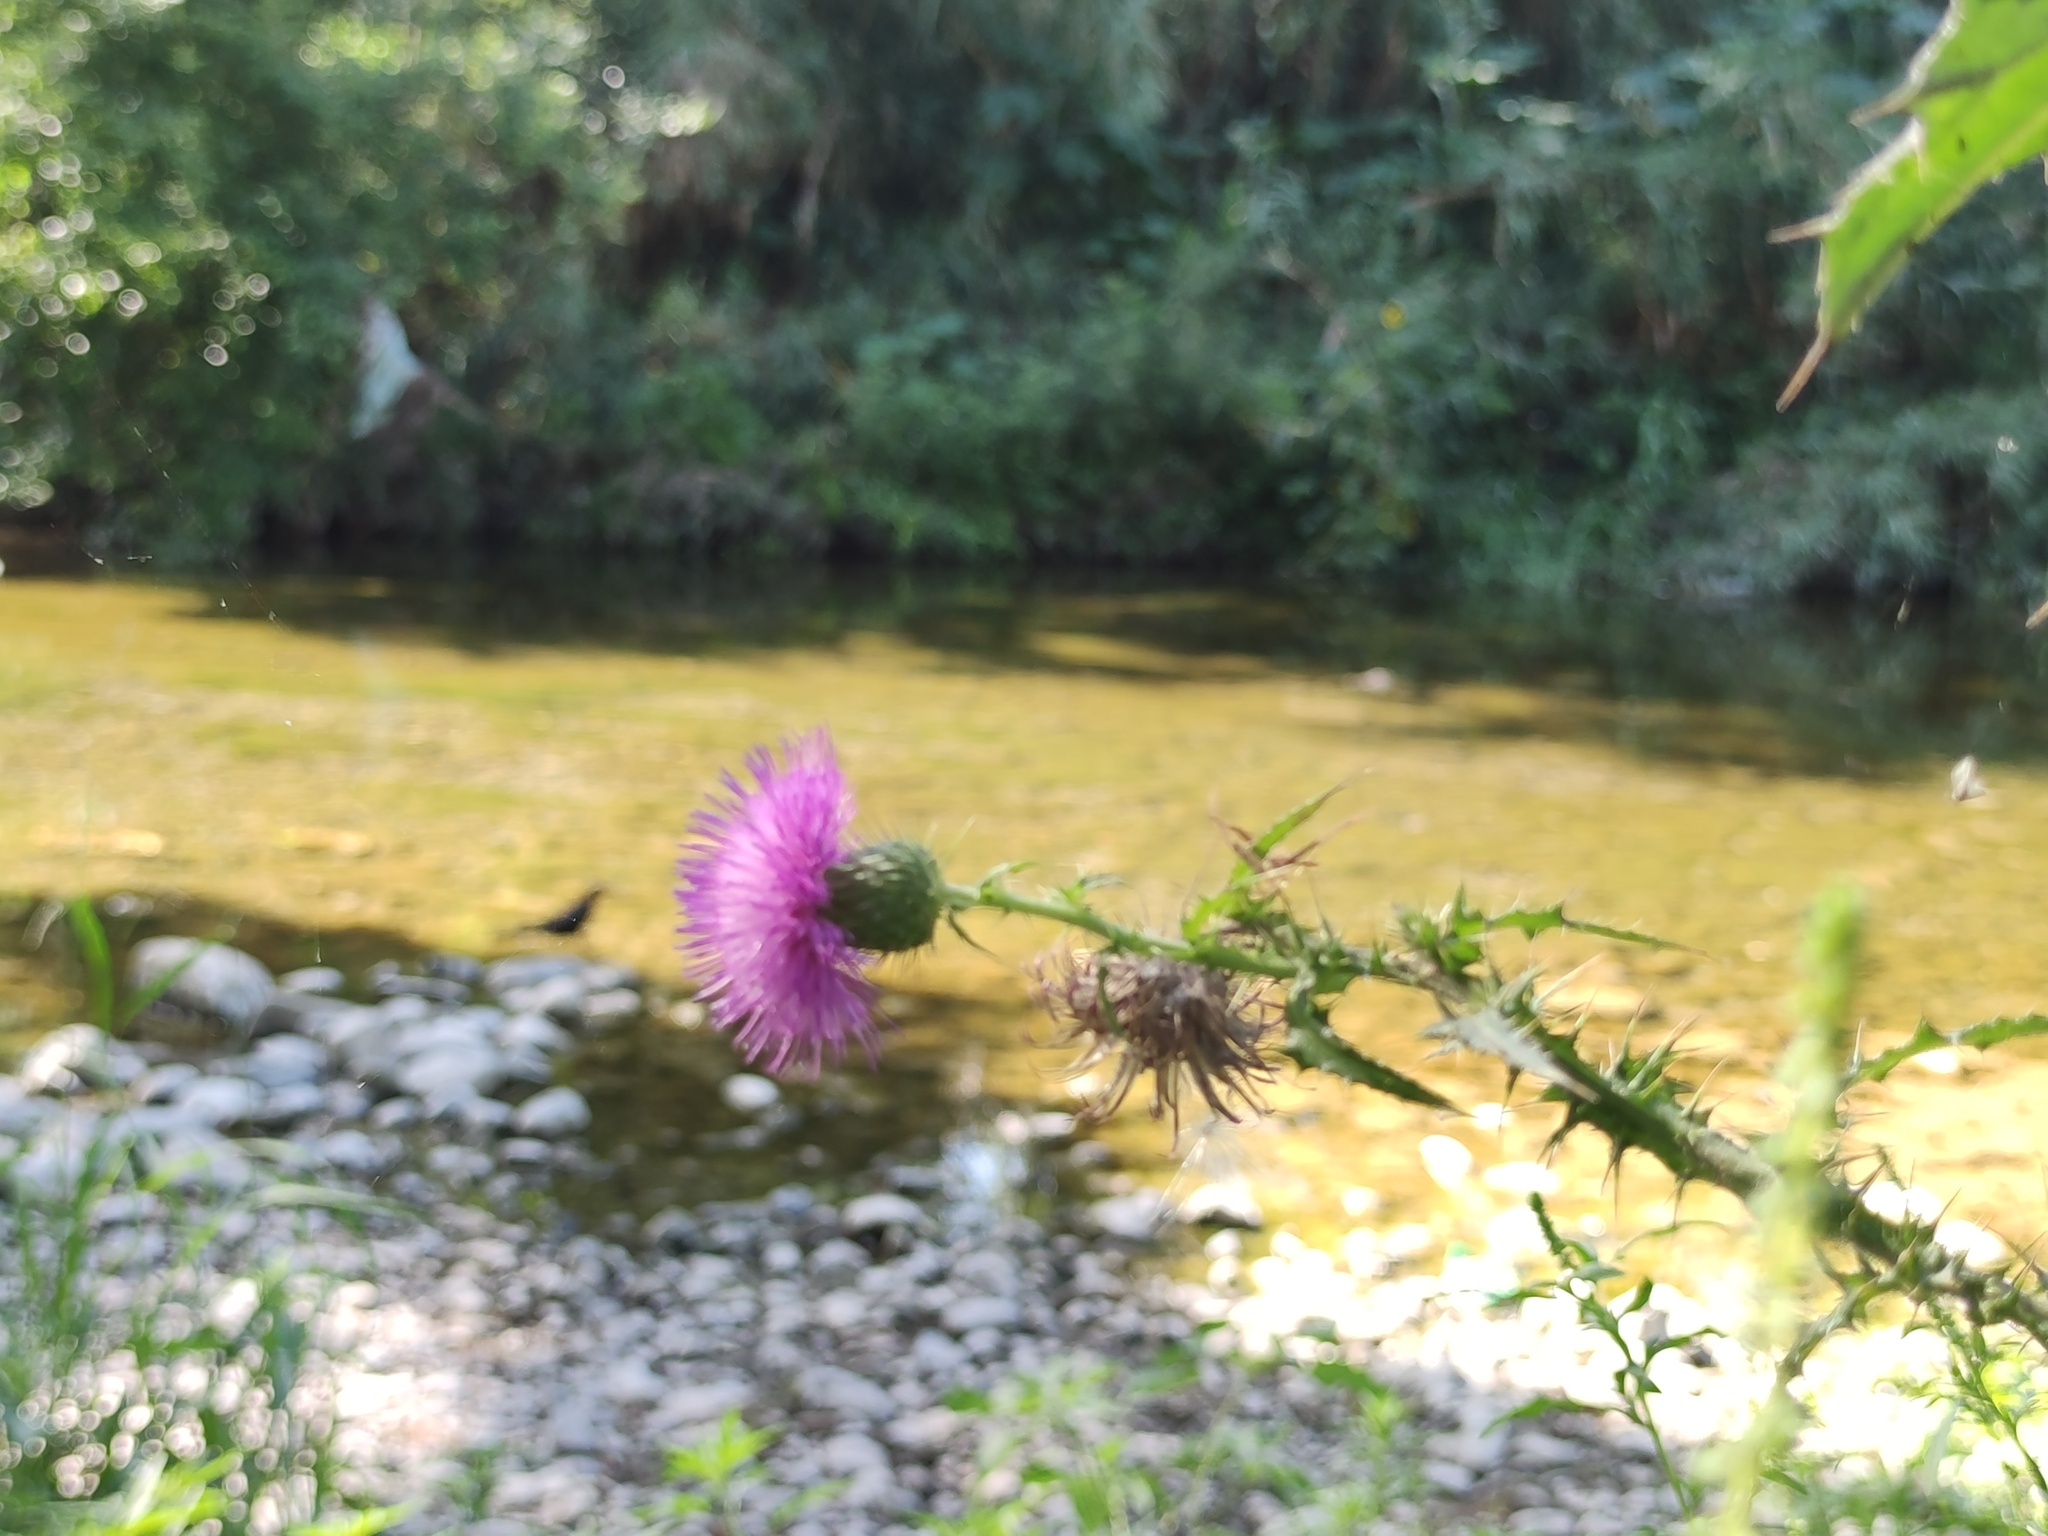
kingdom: Plantae
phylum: Tracheophyta
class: Magnoliopsida
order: Asterales
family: Asteraceae
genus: Cirsium
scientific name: Cirsium texanum
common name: Texas purple thistle
